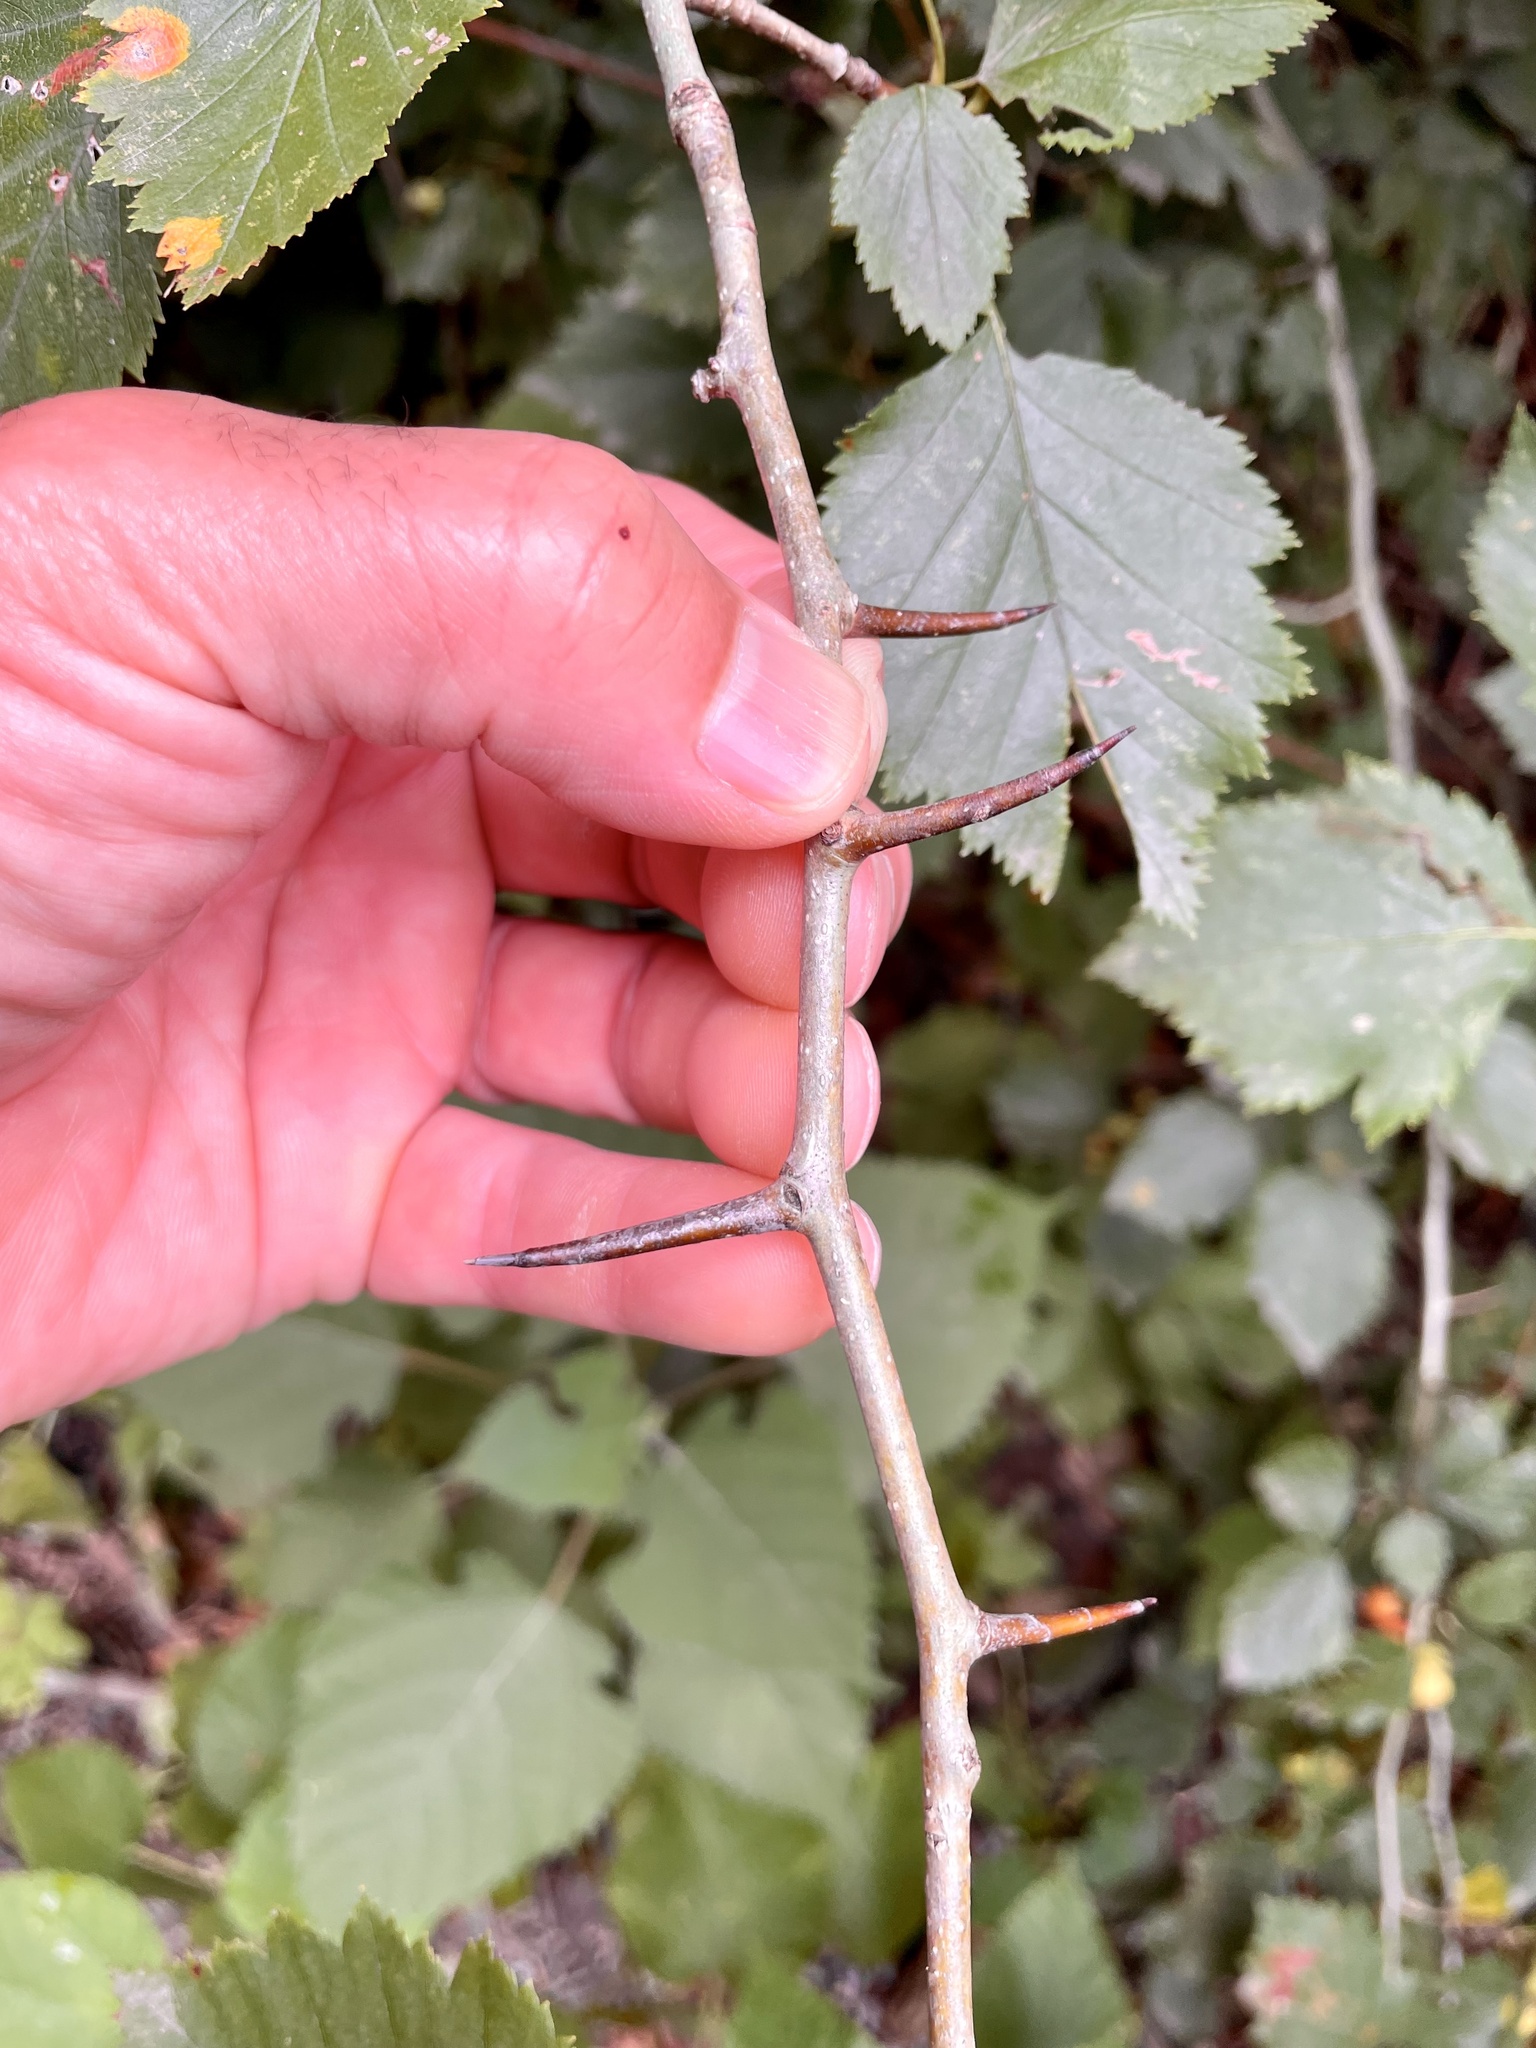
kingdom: Plantae
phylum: Tracheophyta
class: Magnoliopsida
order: Rosales
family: Rosaceae
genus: Crataegus
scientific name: Crataegus mollis
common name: Downy hawthorn
